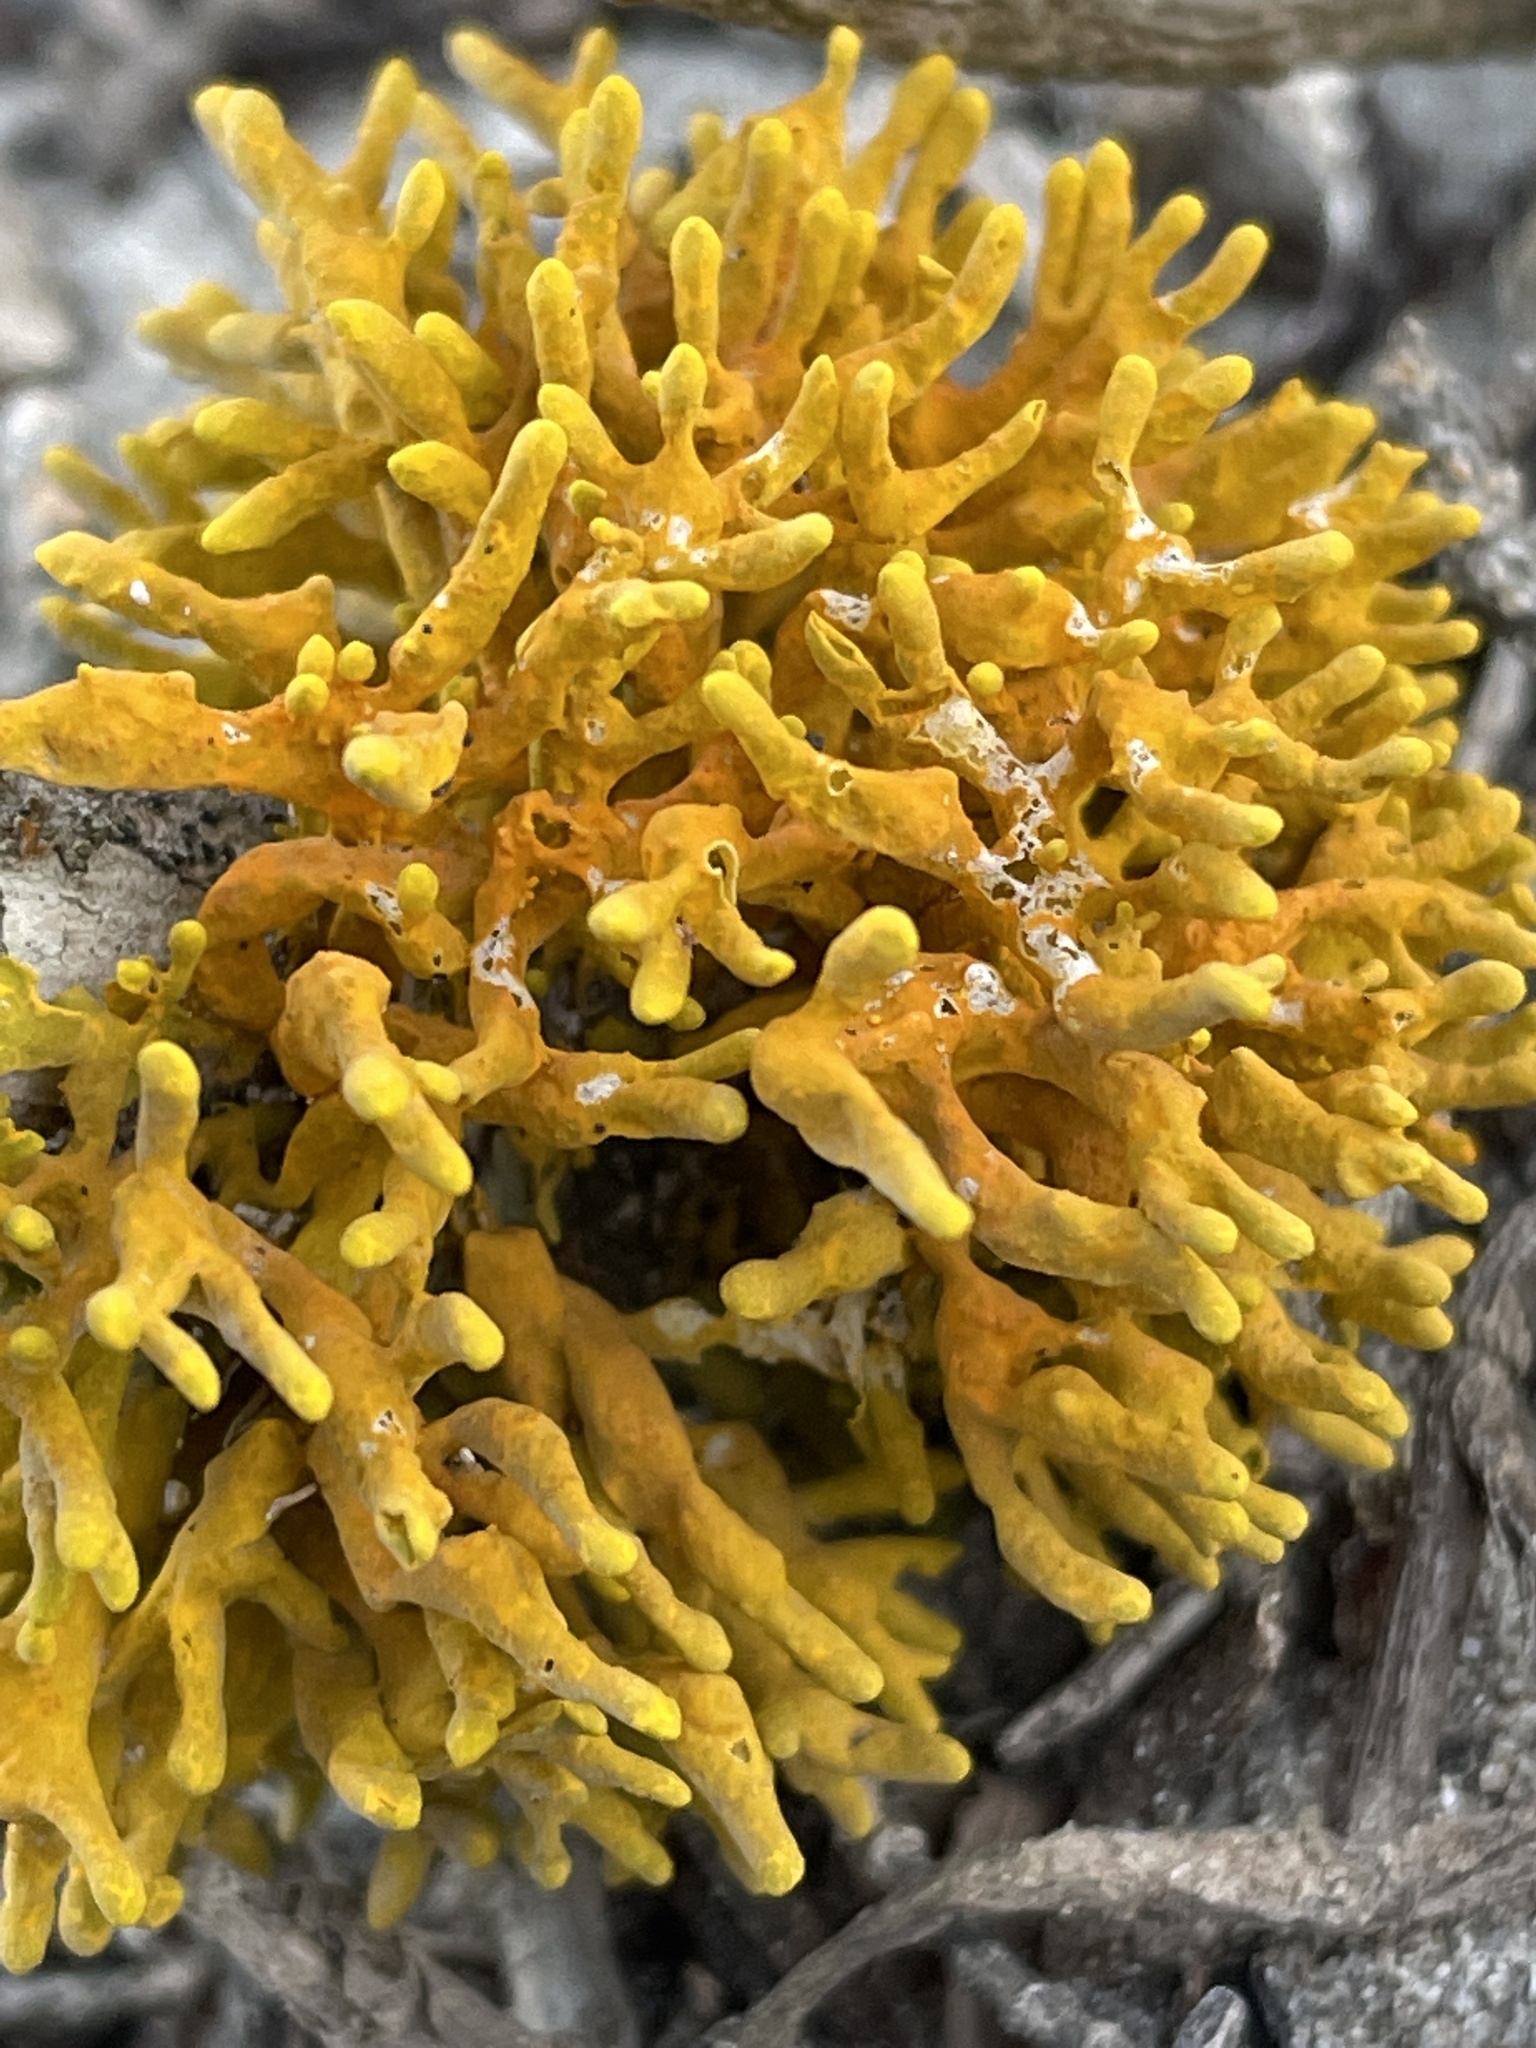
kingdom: Fungi
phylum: Ascomycota
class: Lecanoromycetes
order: Teloschistales
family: Teloschistaceae
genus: Dufourea
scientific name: Dufourea flammea
